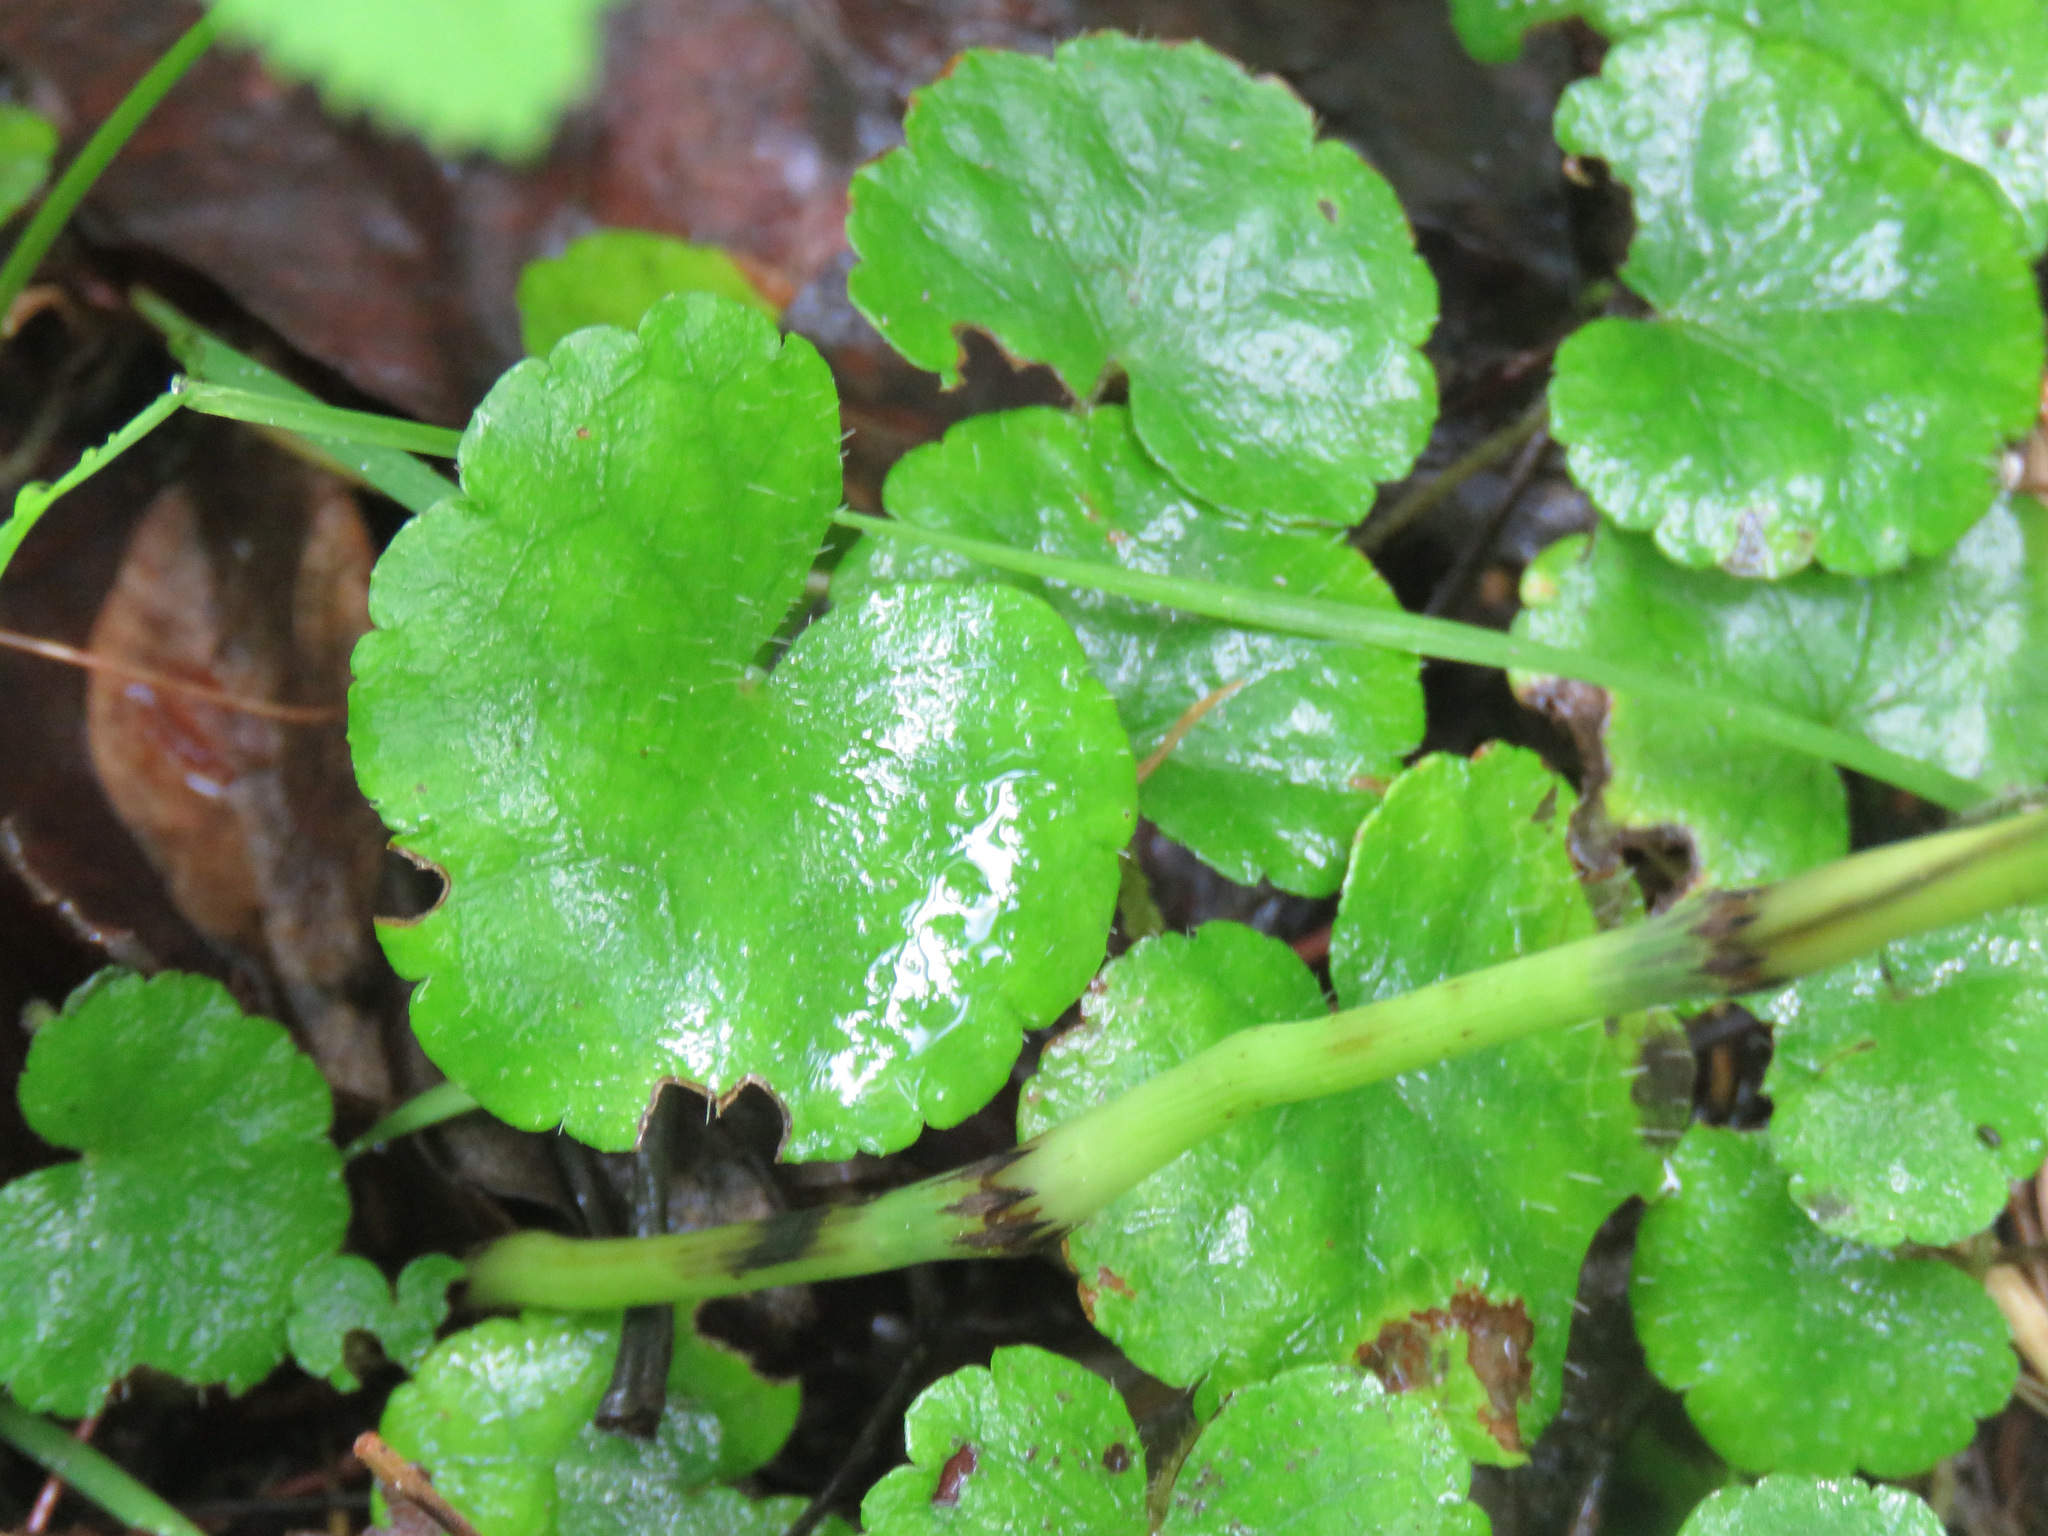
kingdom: Plantae
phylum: Tracheophyta
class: Magnoliopsida
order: Saxifragales
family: Saxifragaceae
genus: Mitella
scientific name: Mitella nuda
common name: Bare-stemmed bishop's-cap
